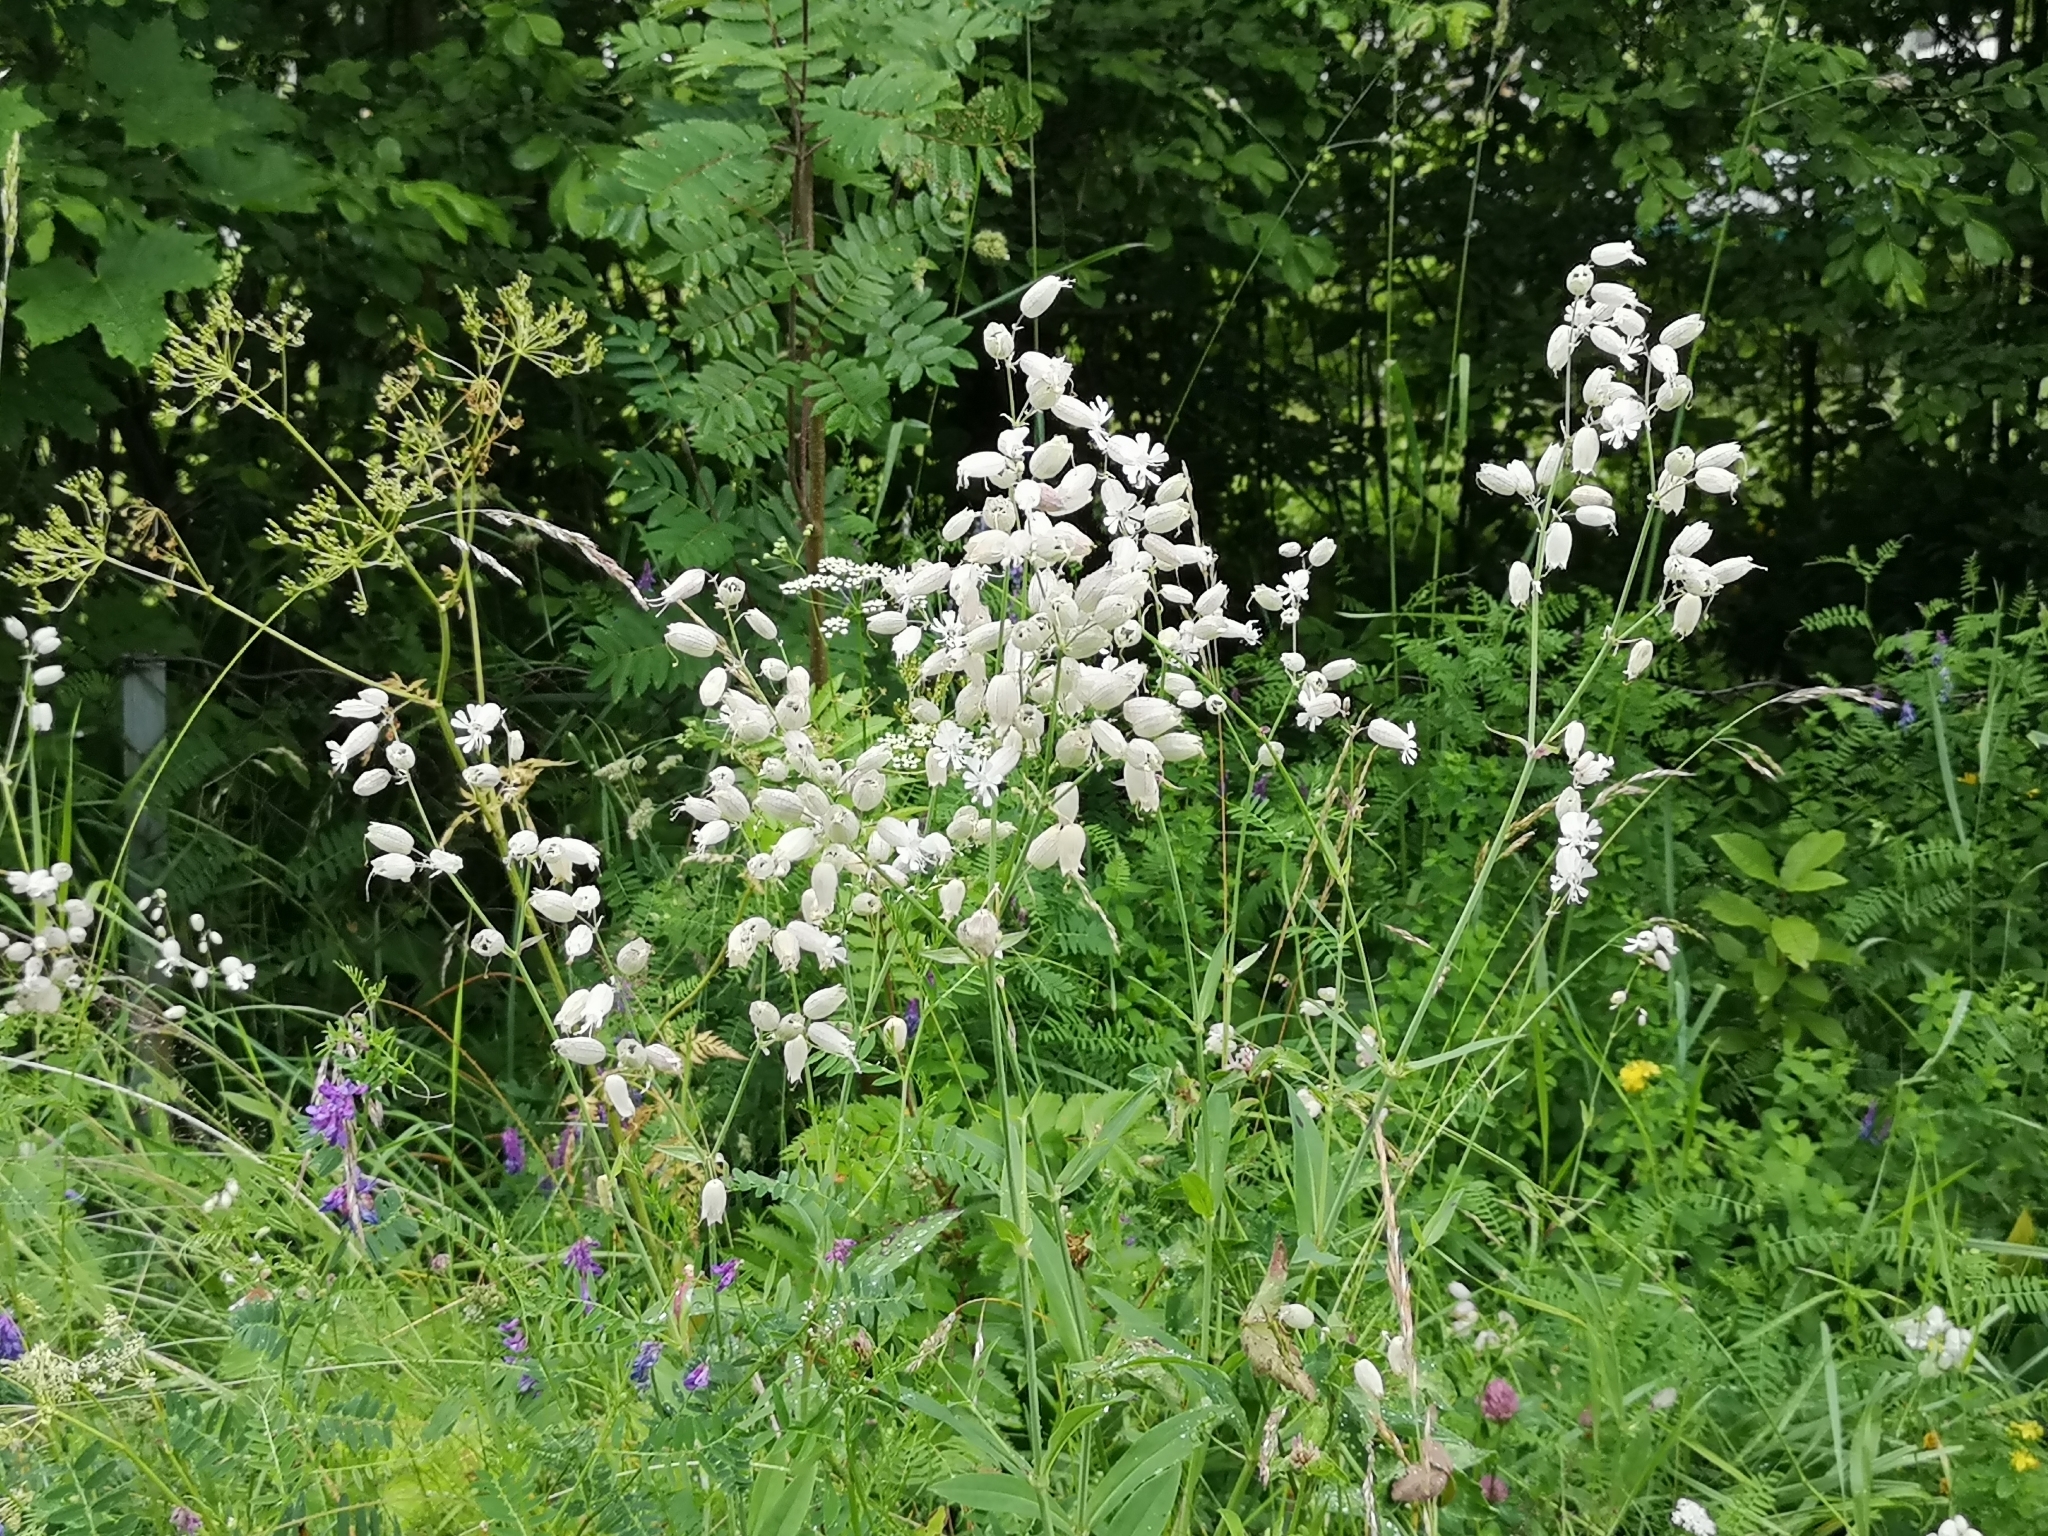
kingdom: Plantae
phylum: Tracheophyta
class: Magnoliopsida
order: Caryophyllales
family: Caryophyllaceae
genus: Silene
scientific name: Silene vulgaris
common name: Bladder campion
